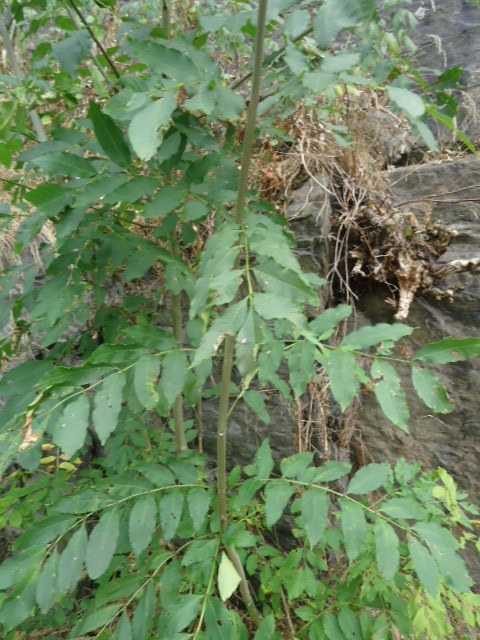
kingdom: Plantae
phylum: Tracheophyta
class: Magnoliopsida
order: Lamiales
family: Oleaceae
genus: Fraxinus
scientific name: Fraxinus excelsior
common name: European ash
